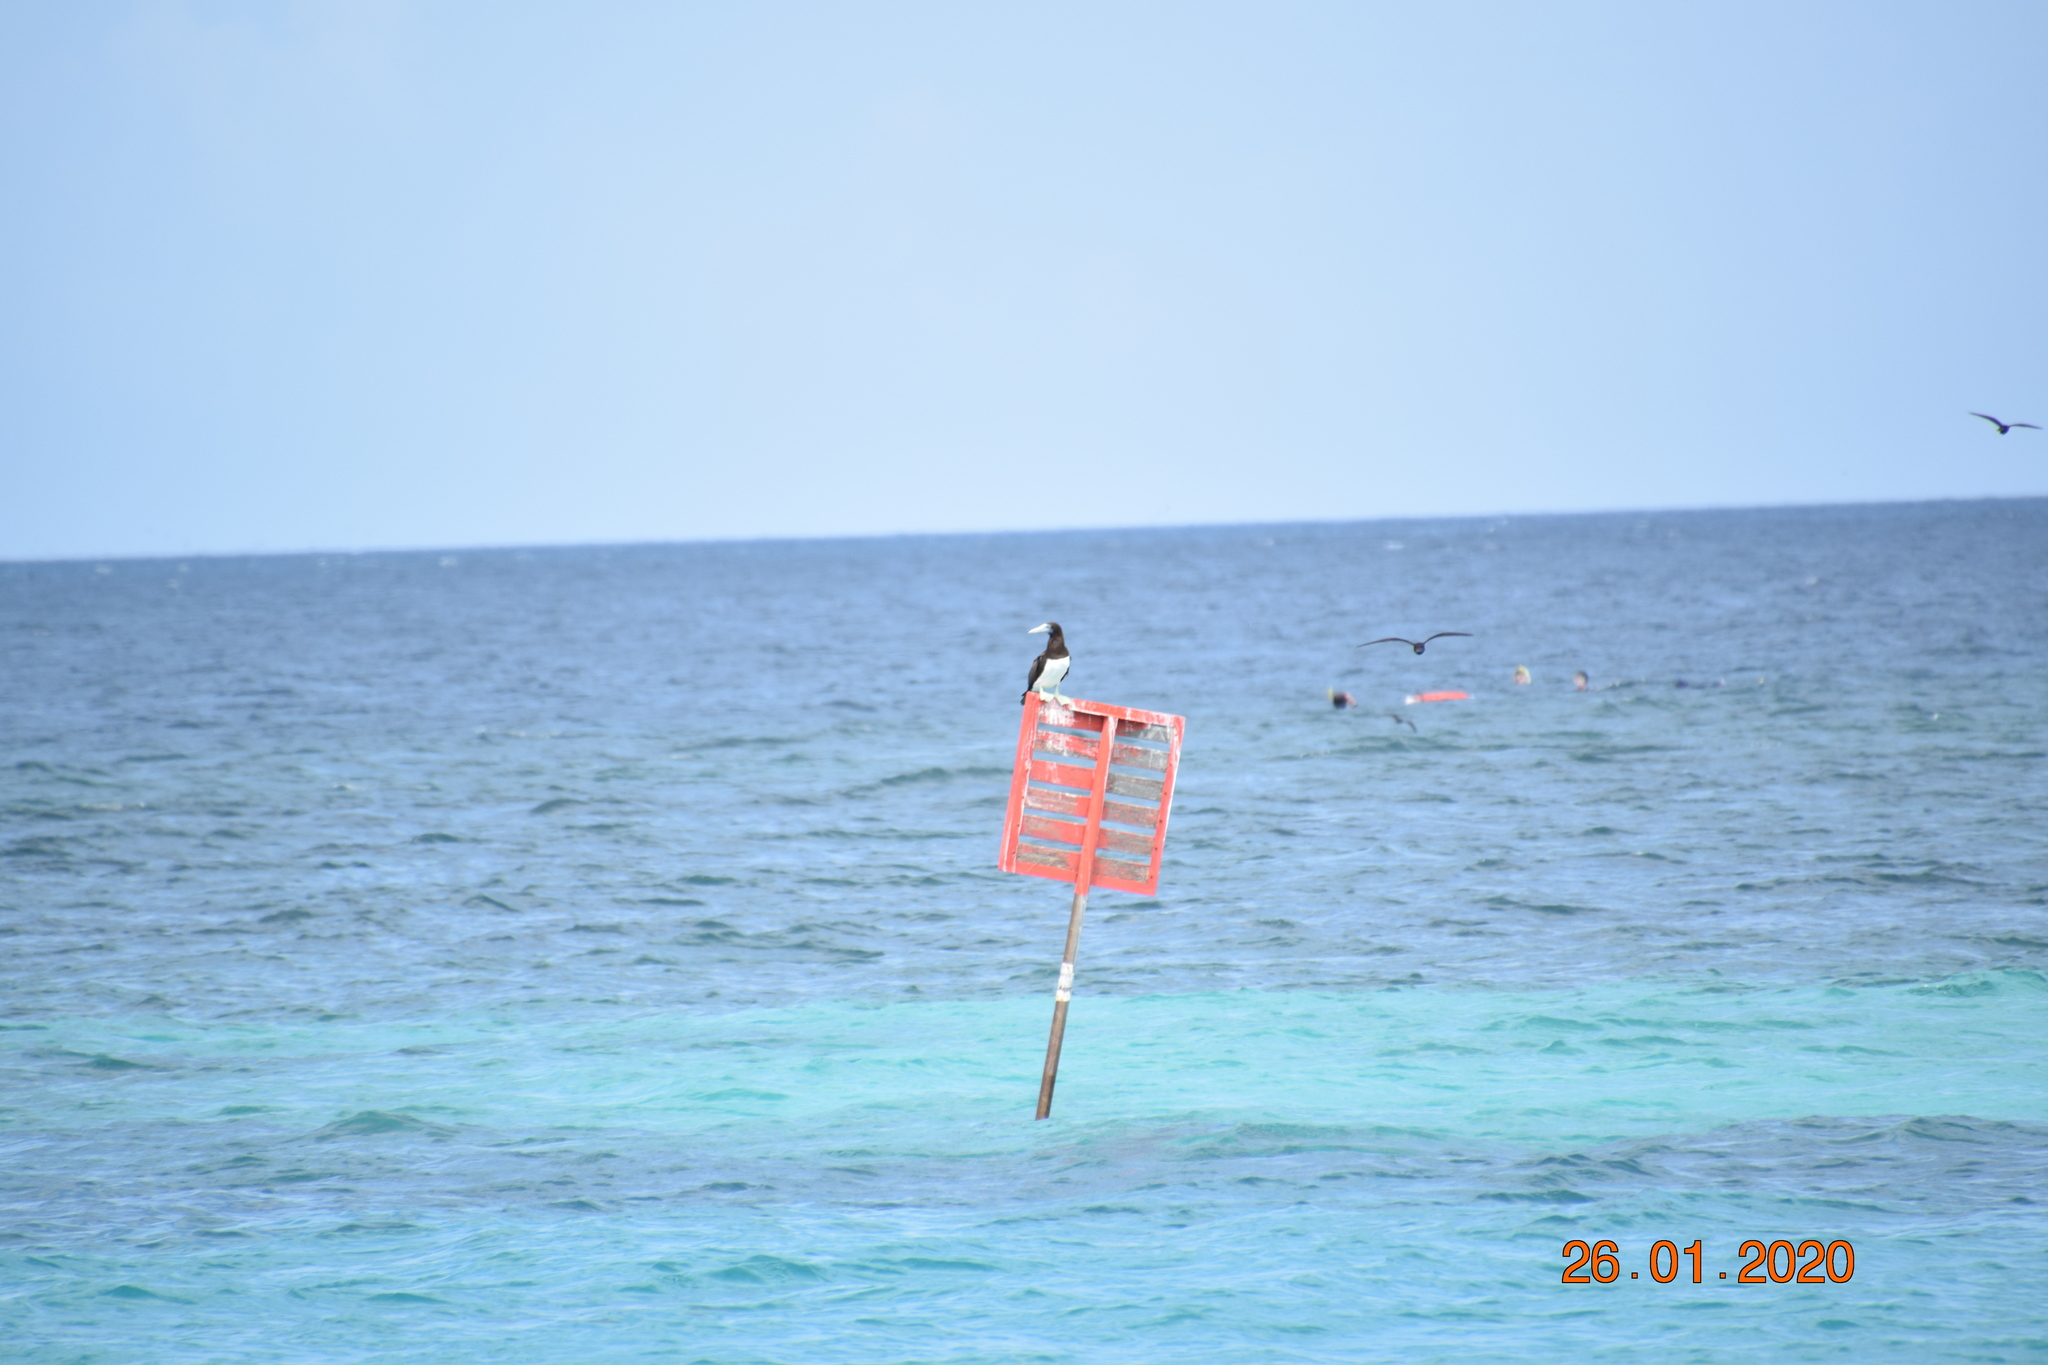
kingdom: Animalia
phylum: Chordata
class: Aves
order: Suliformes
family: Sulidae
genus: Sula
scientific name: Sula leucogaster
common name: Brown booby
